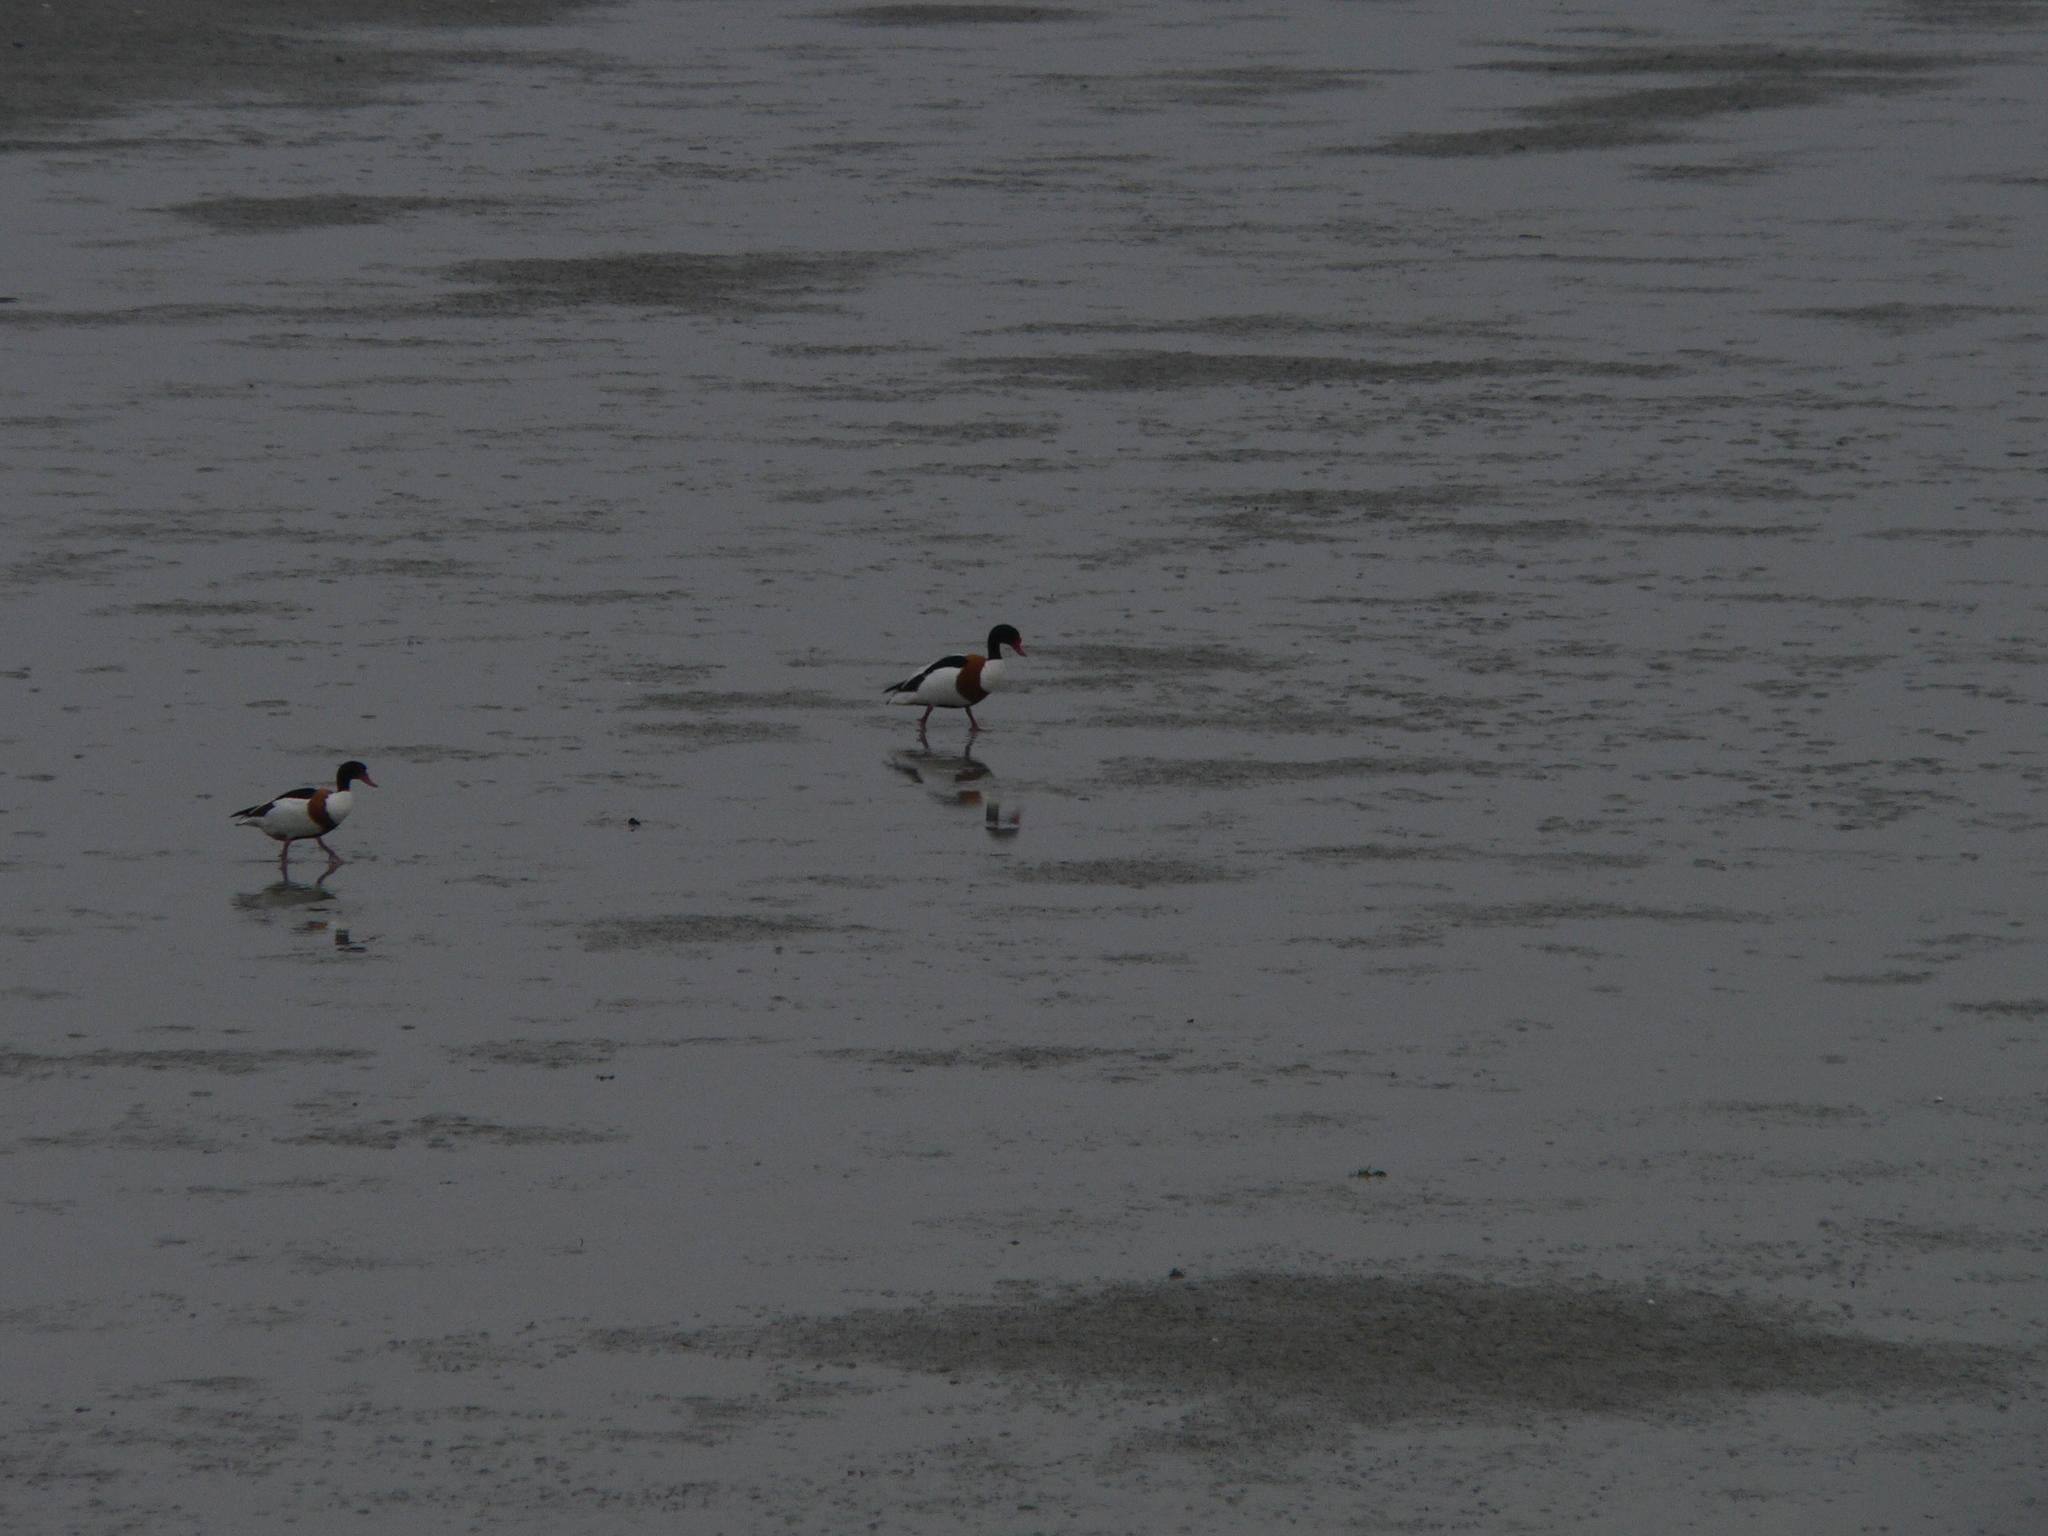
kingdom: Animalia
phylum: Chordata
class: Aves
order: Anseriformes
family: Anatidae
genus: Tadorna
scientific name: Tadorna tadorna
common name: Common shelduck
